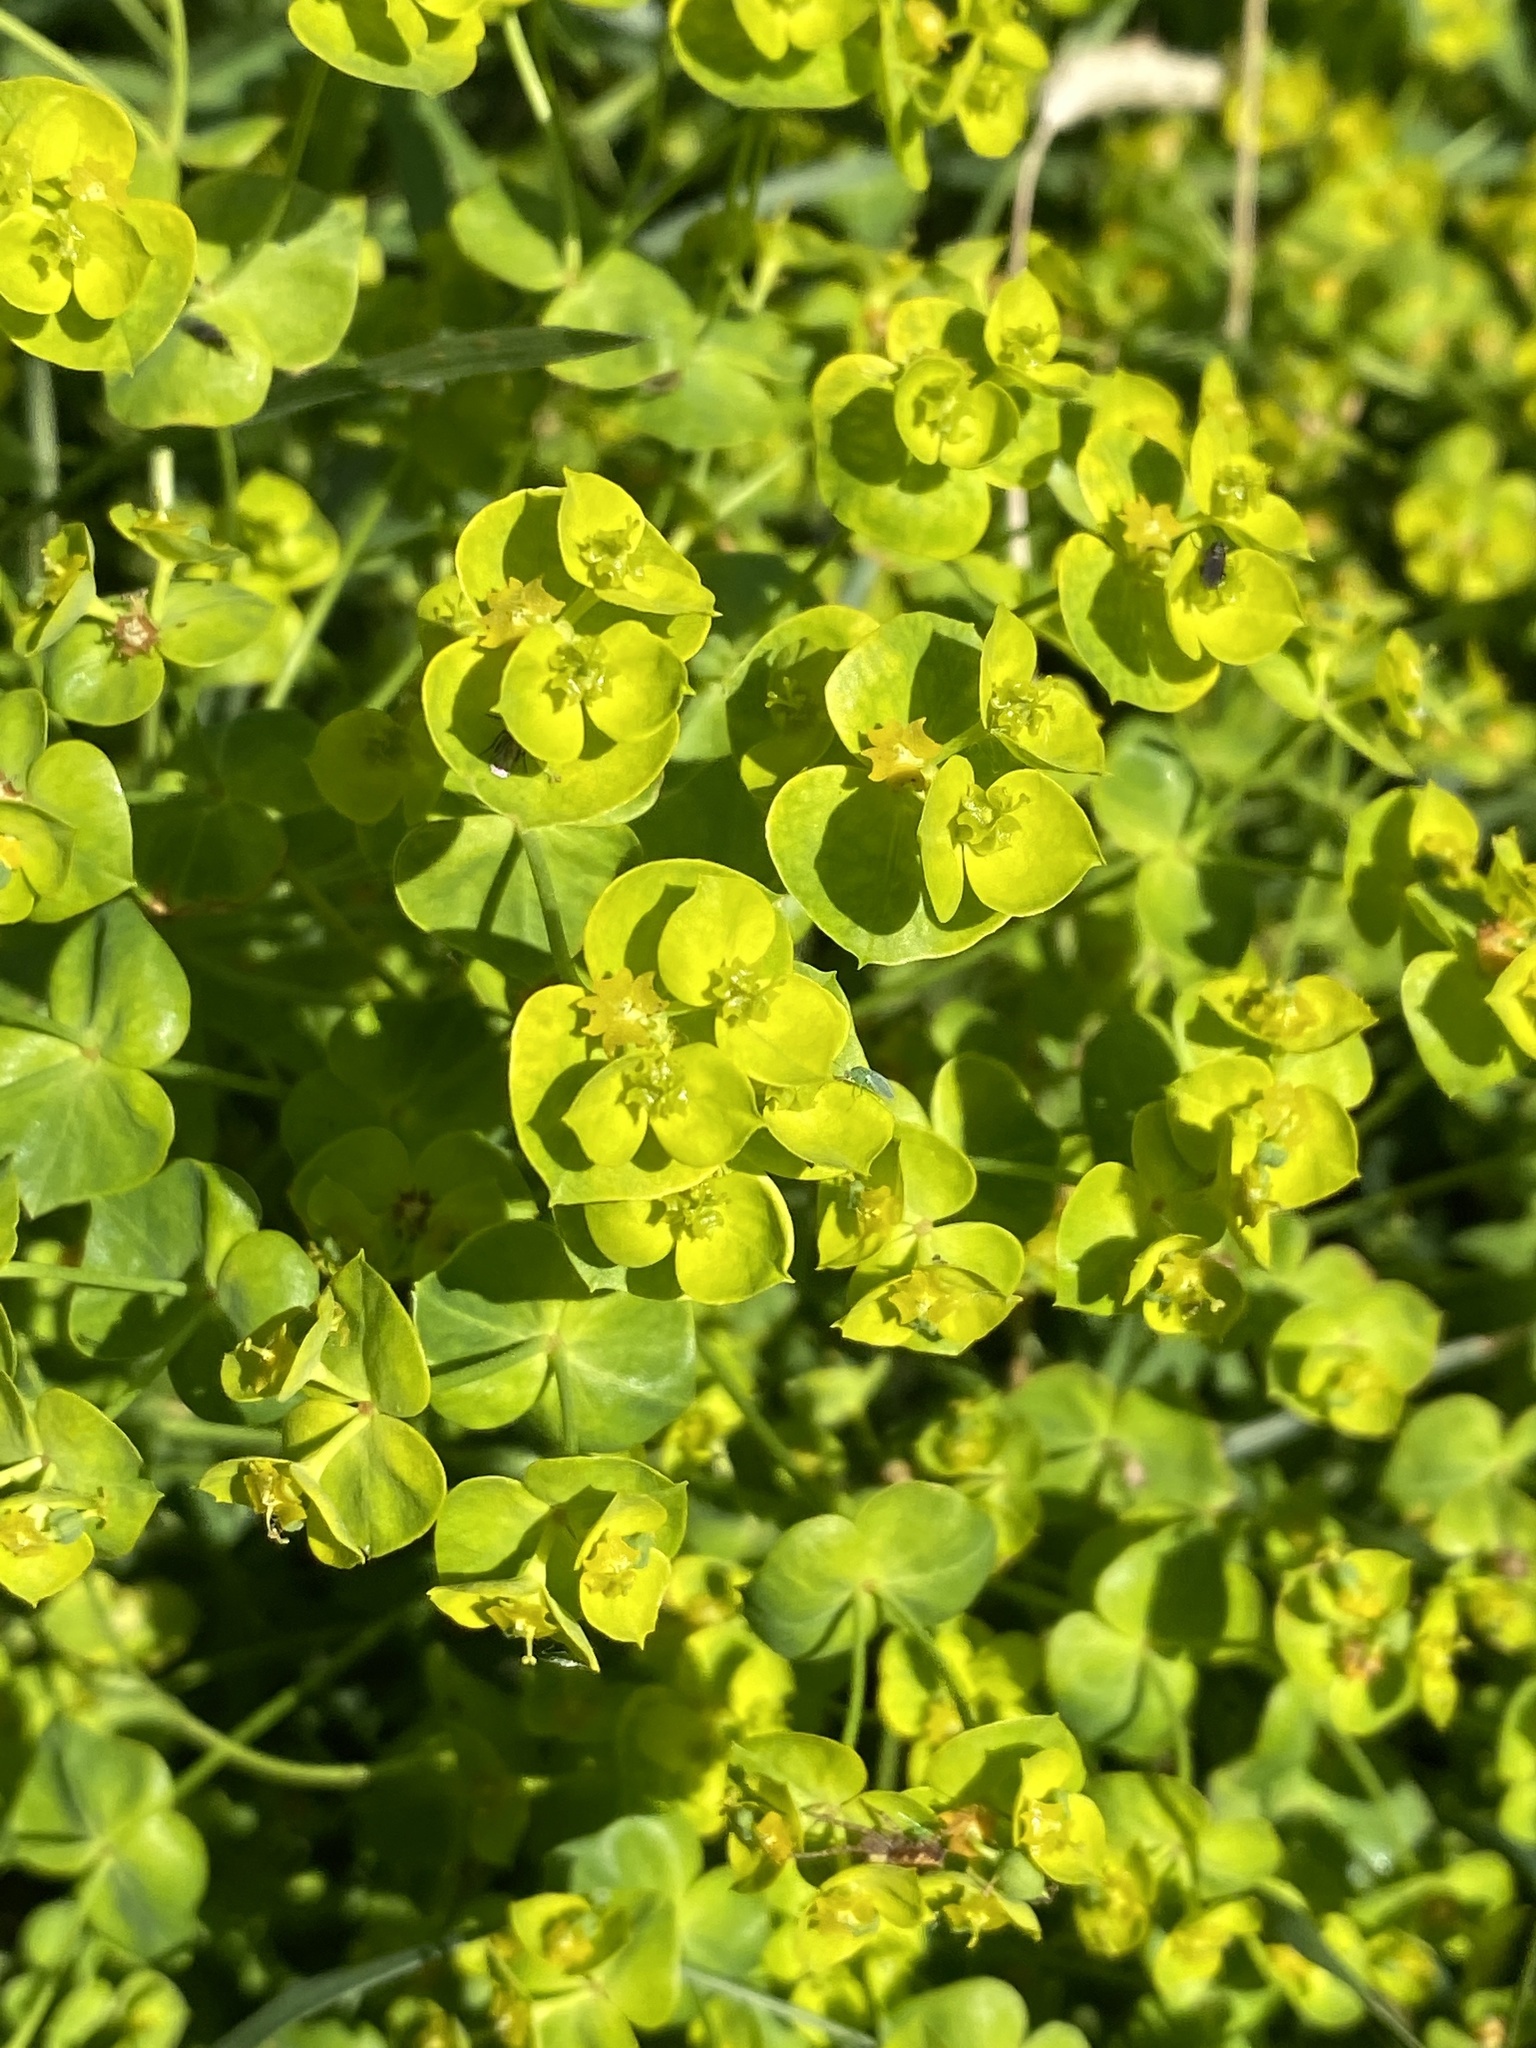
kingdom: Plantae
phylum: Tracheophyta
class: Magnoliopsida
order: Malpighiales
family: Euphorbiaceae
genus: Euphorbia
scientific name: Euphorbia esula
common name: Leafy spurge
